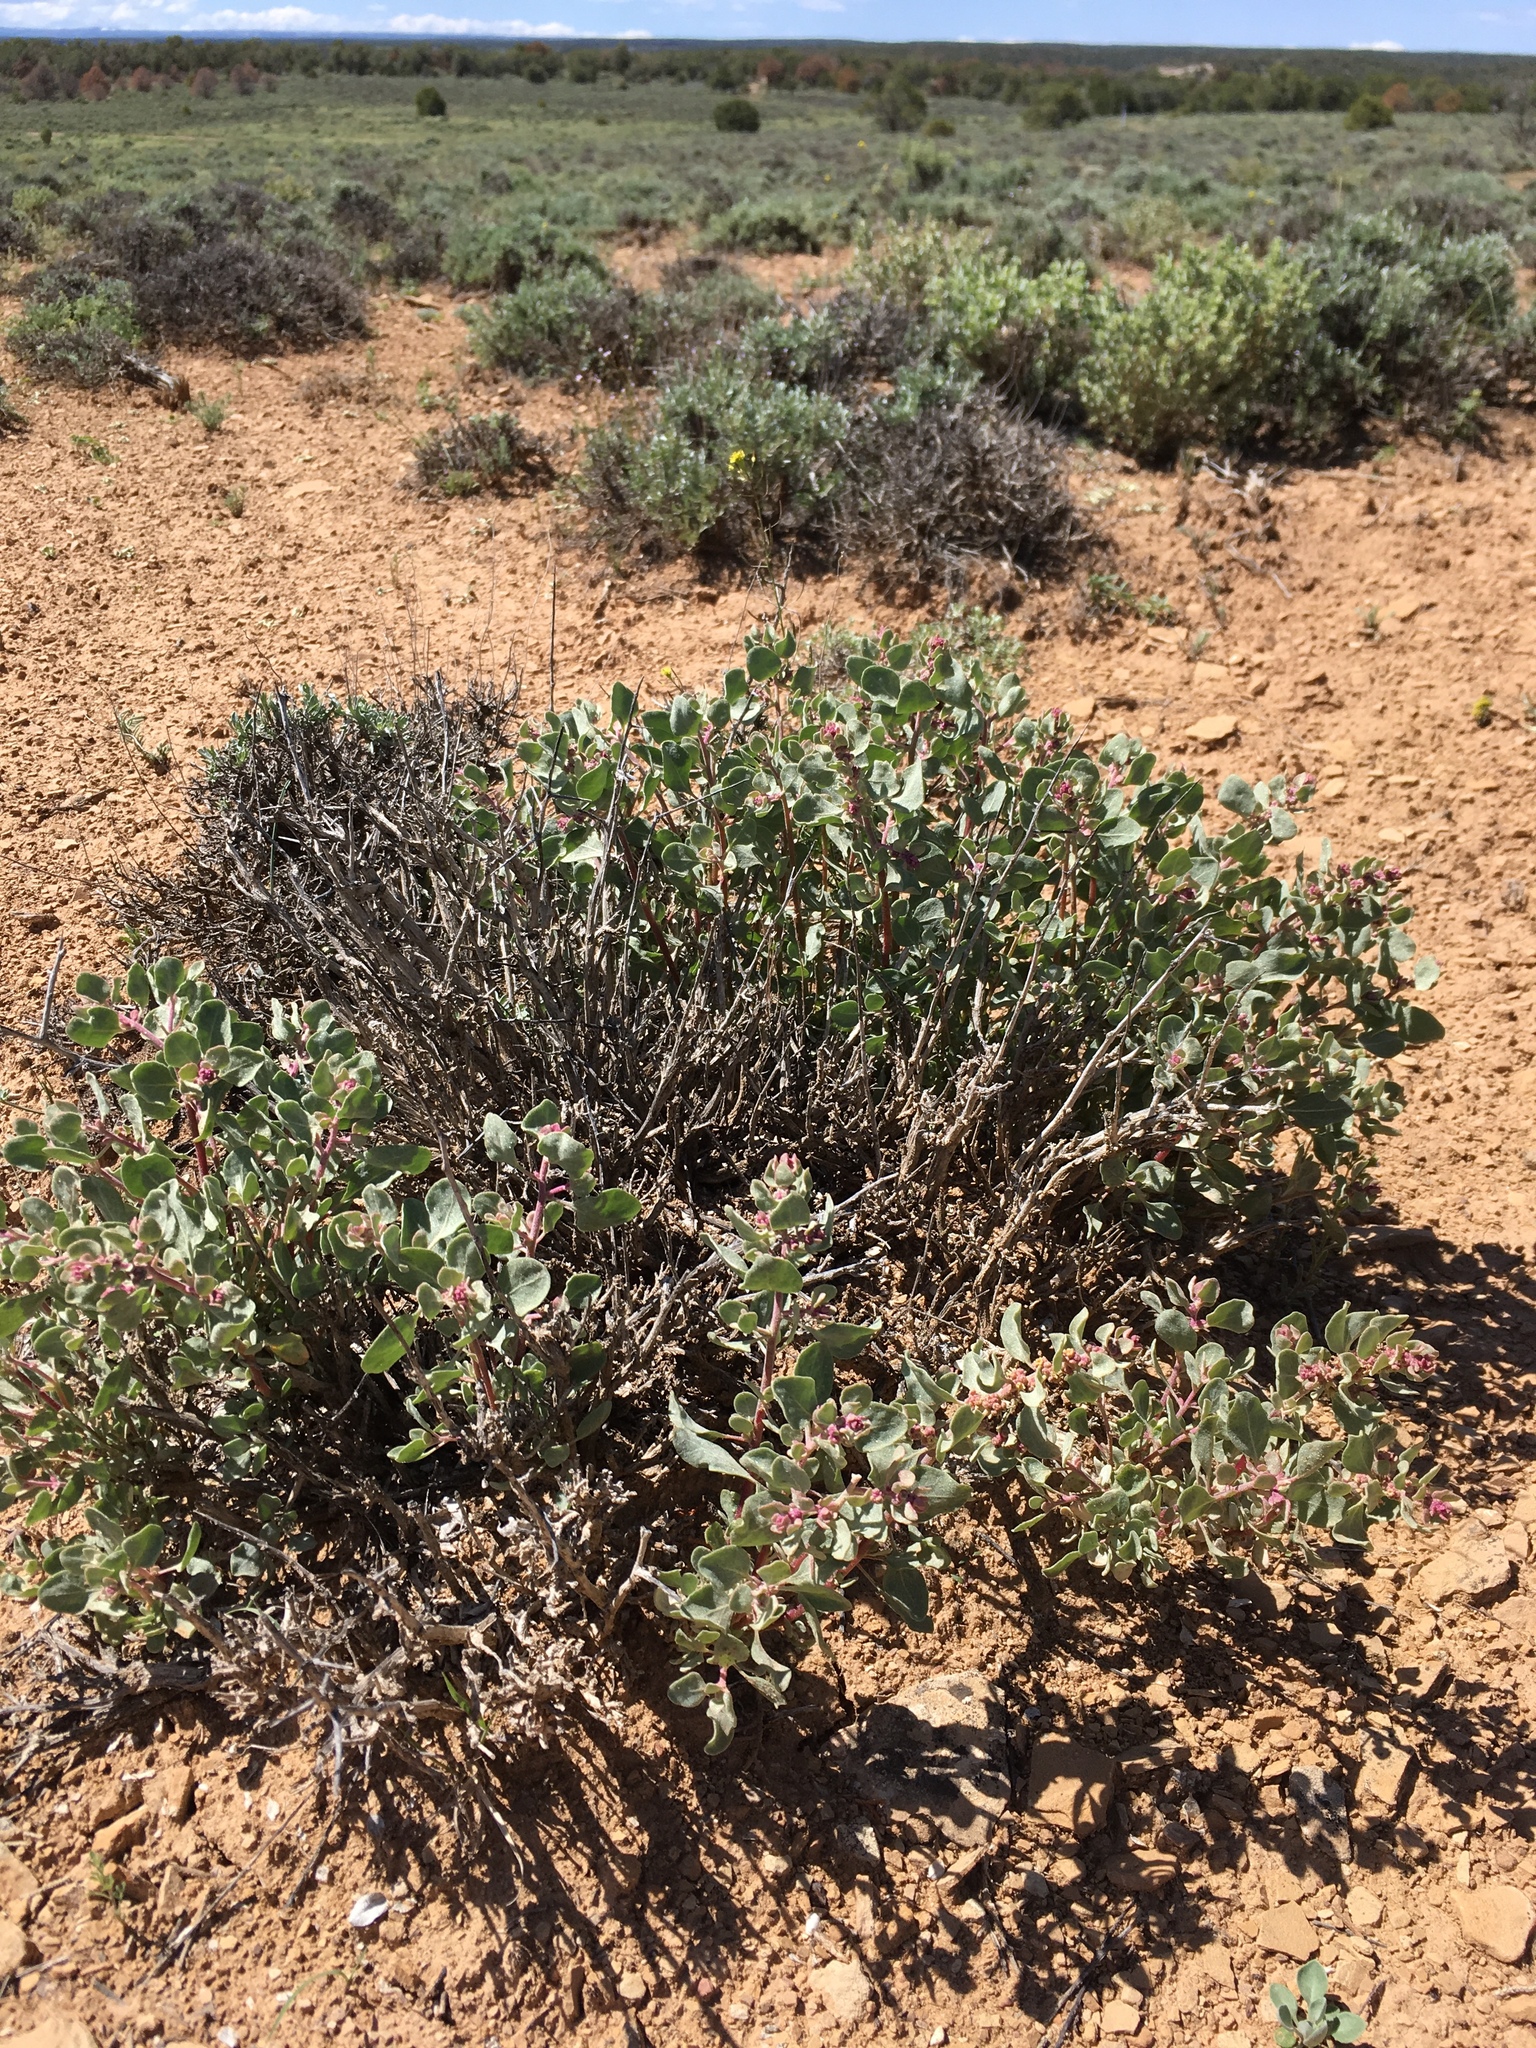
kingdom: Plantae
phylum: Tracheophyta
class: Magnoliopsida
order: Caryophyllales
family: Amaranthaceae
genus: Atriplex
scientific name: Atriplex confertifolia
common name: Shadscale
